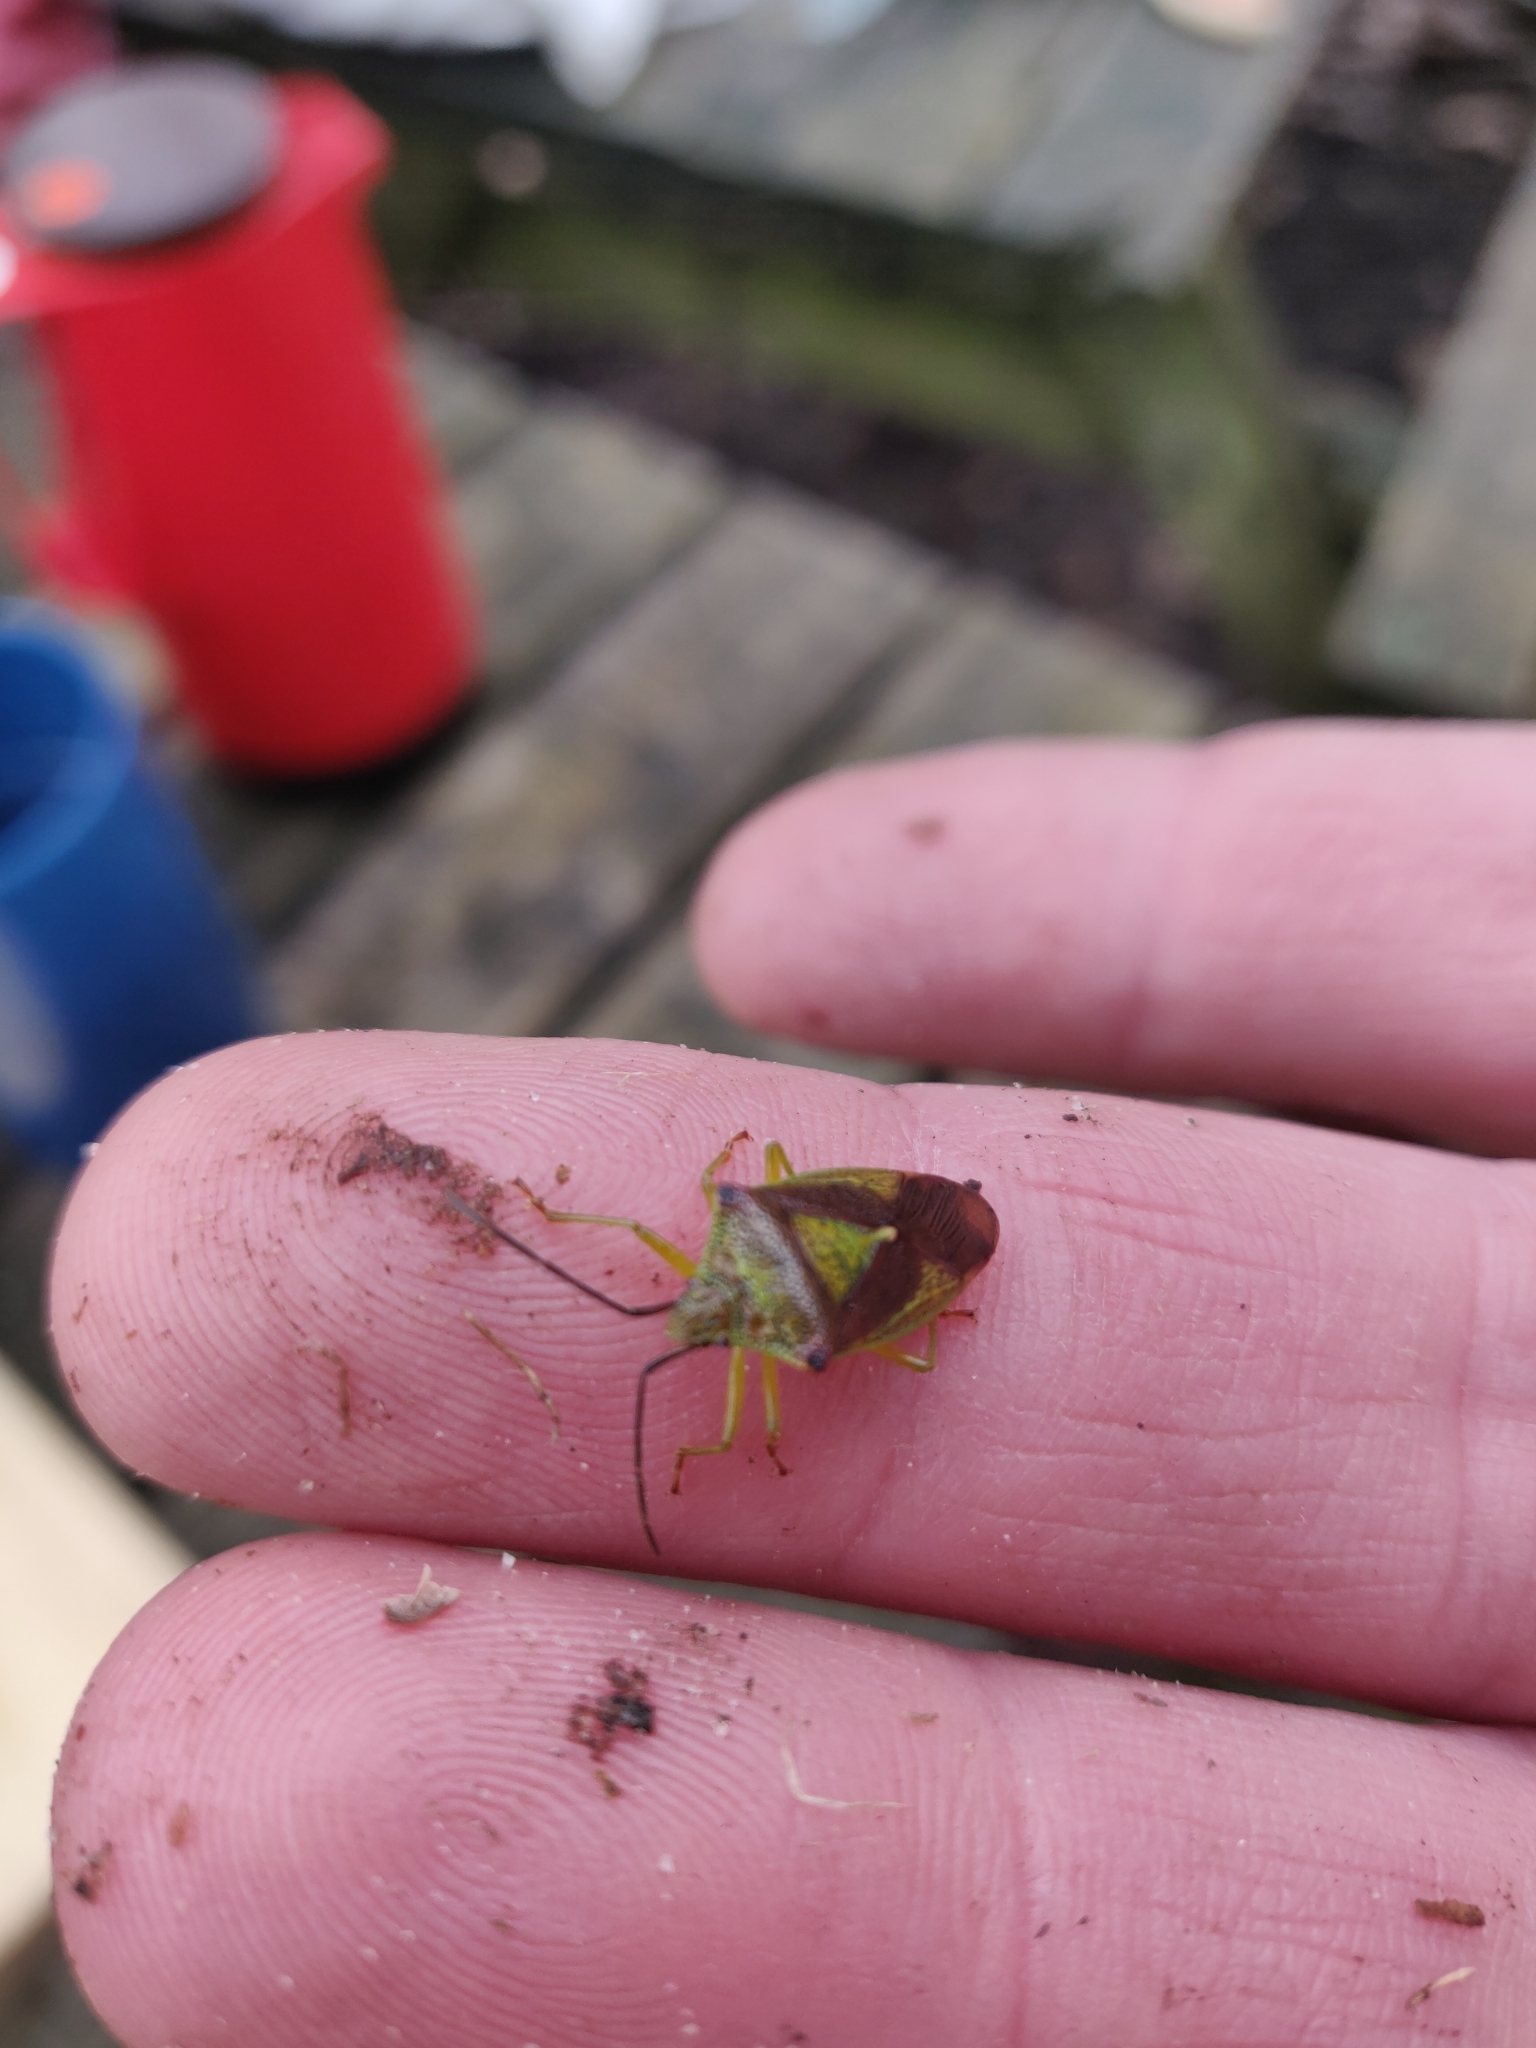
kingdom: Animalia
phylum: Arthropoda
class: Insecta
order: Hemiptera
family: Acanthosomatidae
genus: Acanthosoma
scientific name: Acanthosoma haemorrhoidale
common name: Hawthorn shieldbug
